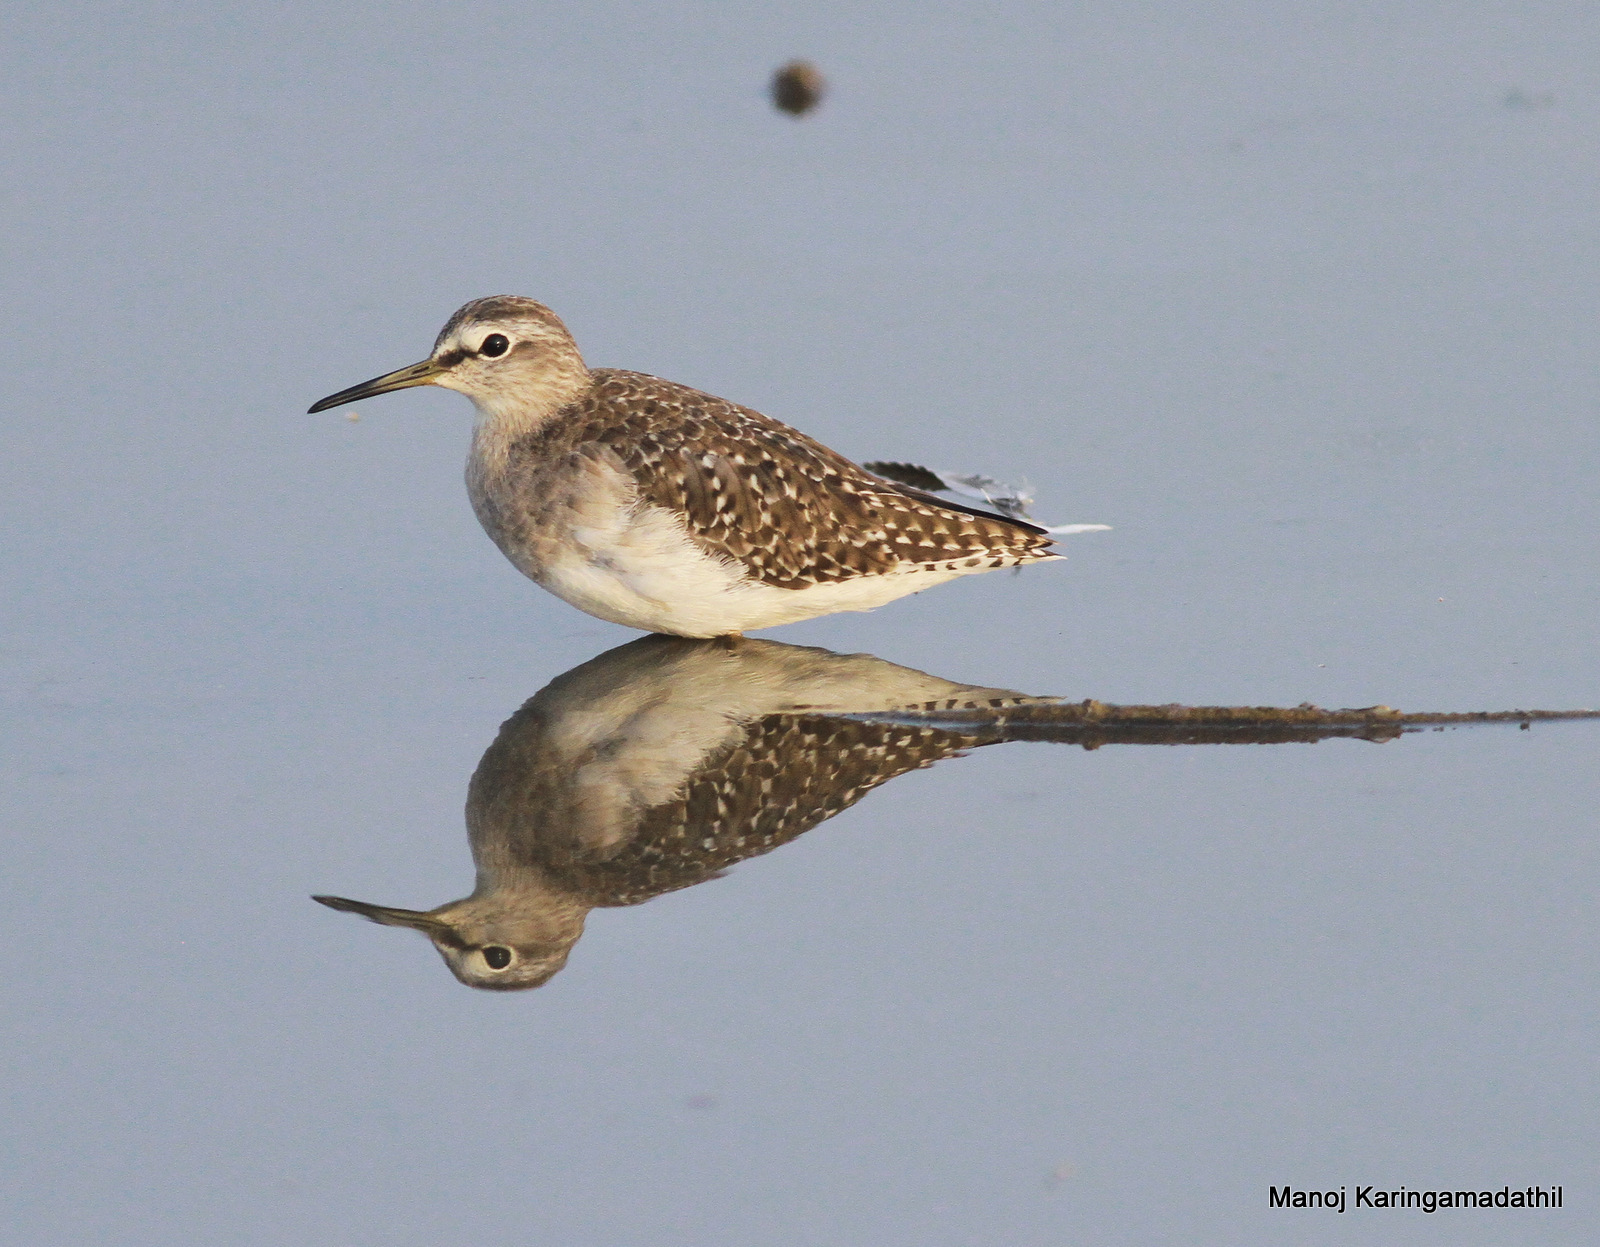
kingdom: Animalia
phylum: Chordata
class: Aves
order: Charadriiformes
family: Scolopacidae
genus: Tringa
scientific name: Tringa glareola
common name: Wood sandpiper
